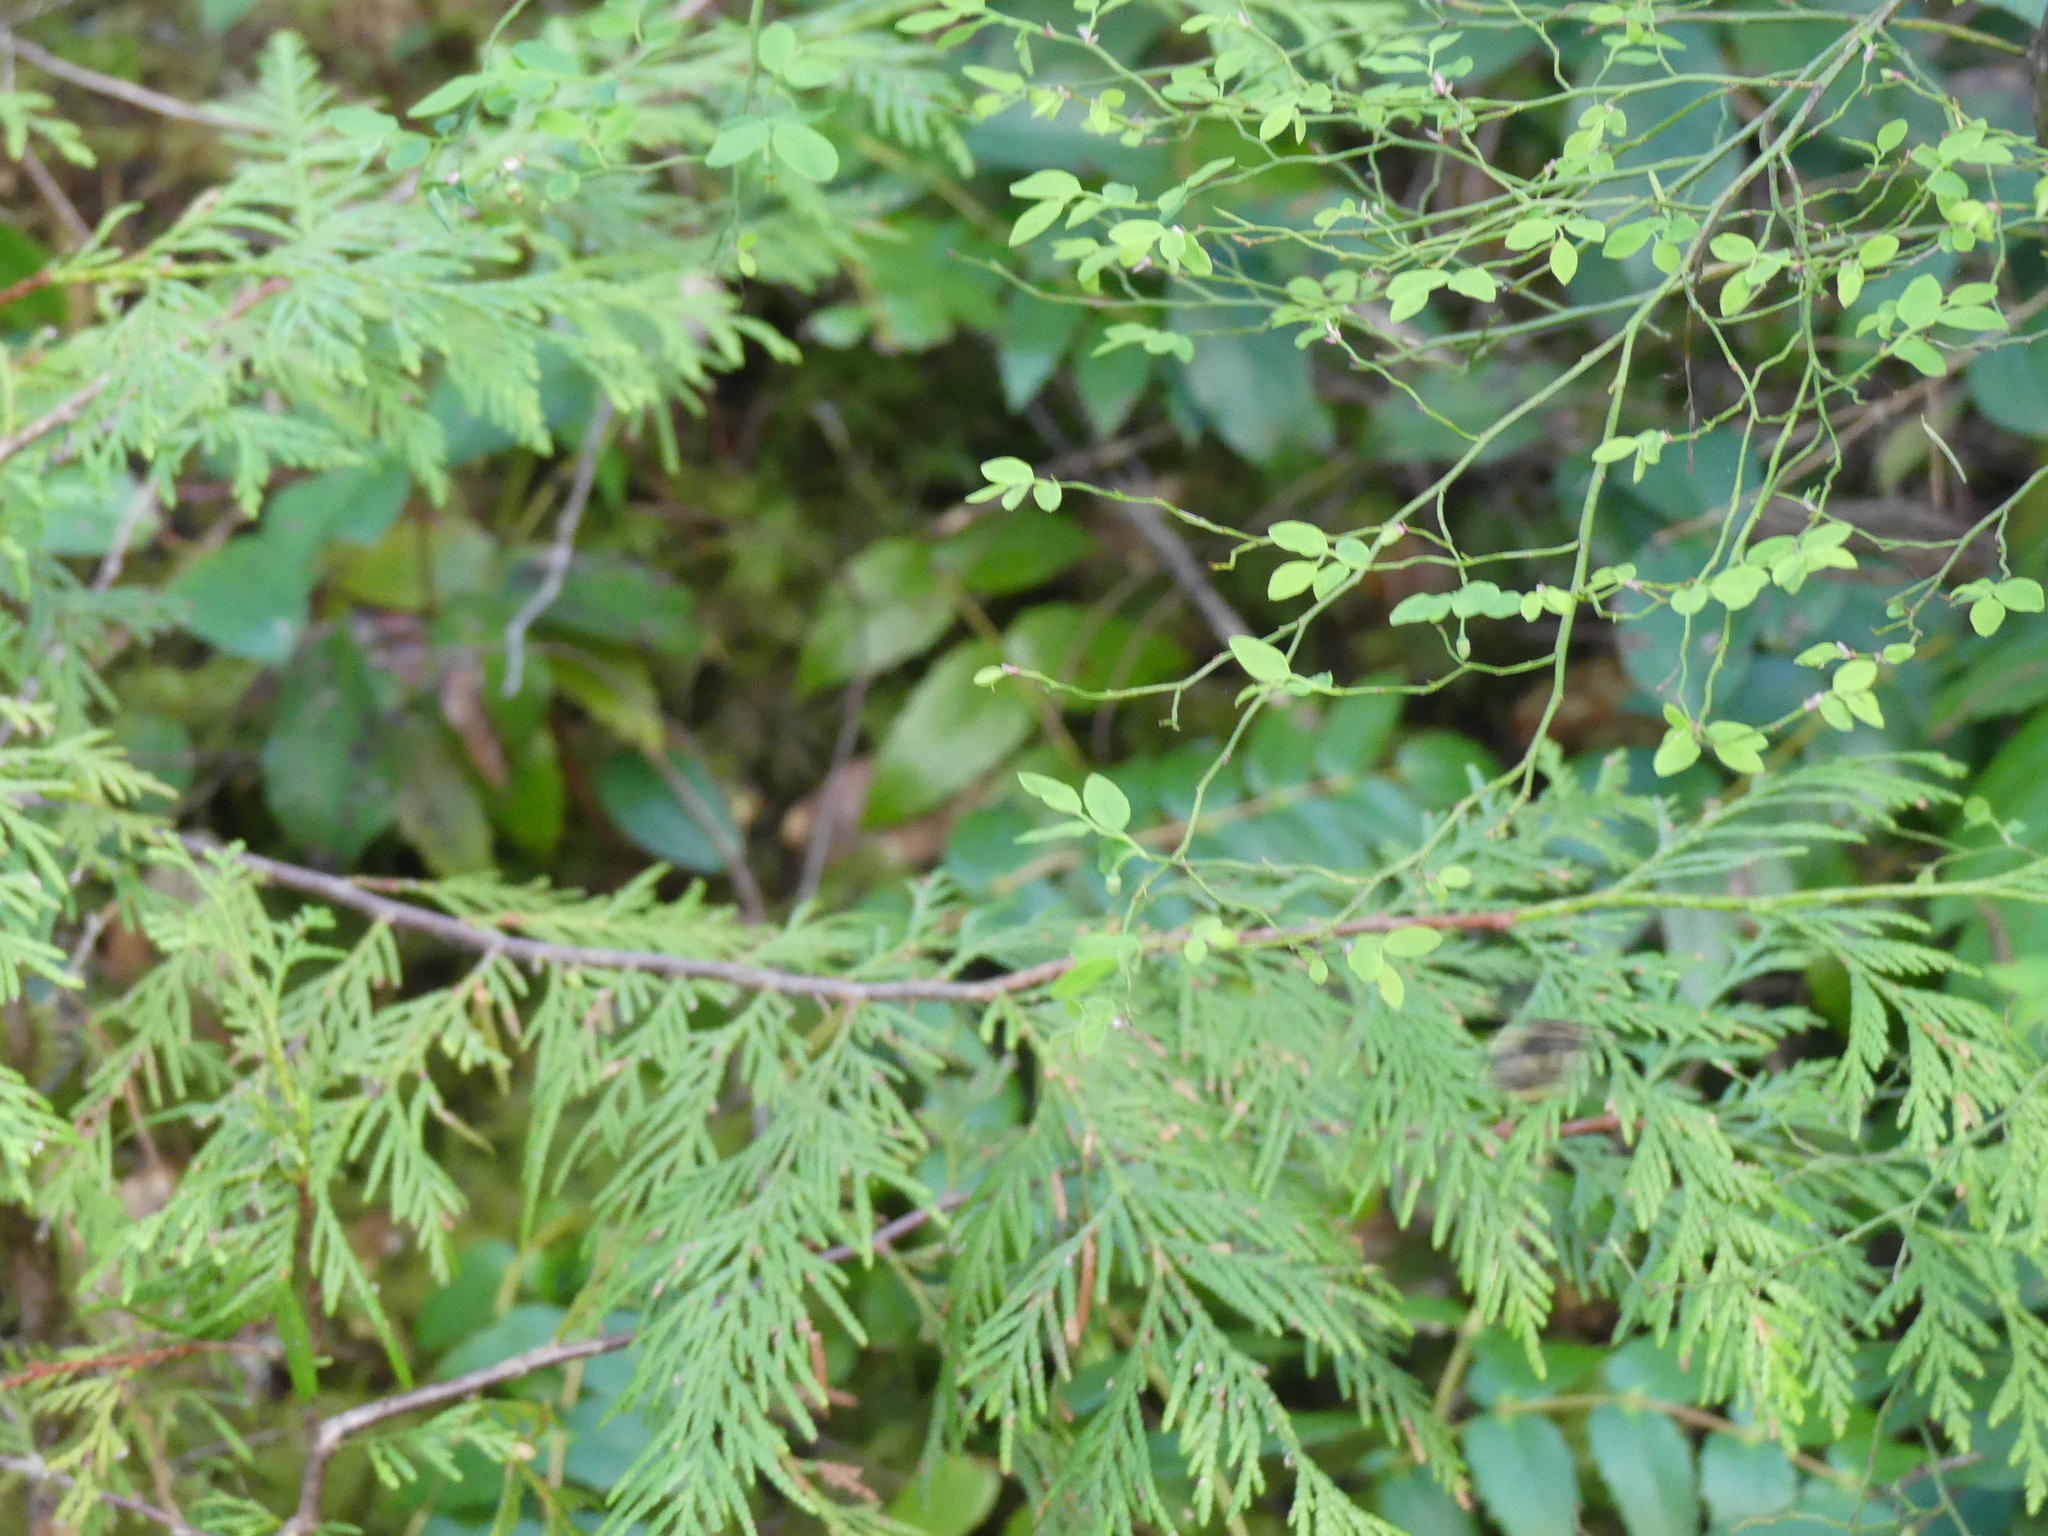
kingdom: Plantae
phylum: Tracheophyta
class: Pinopsida
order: Pinales
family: Cupressaceae
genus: Thuja
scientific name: Thuja plicata
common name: Western red-cedar
